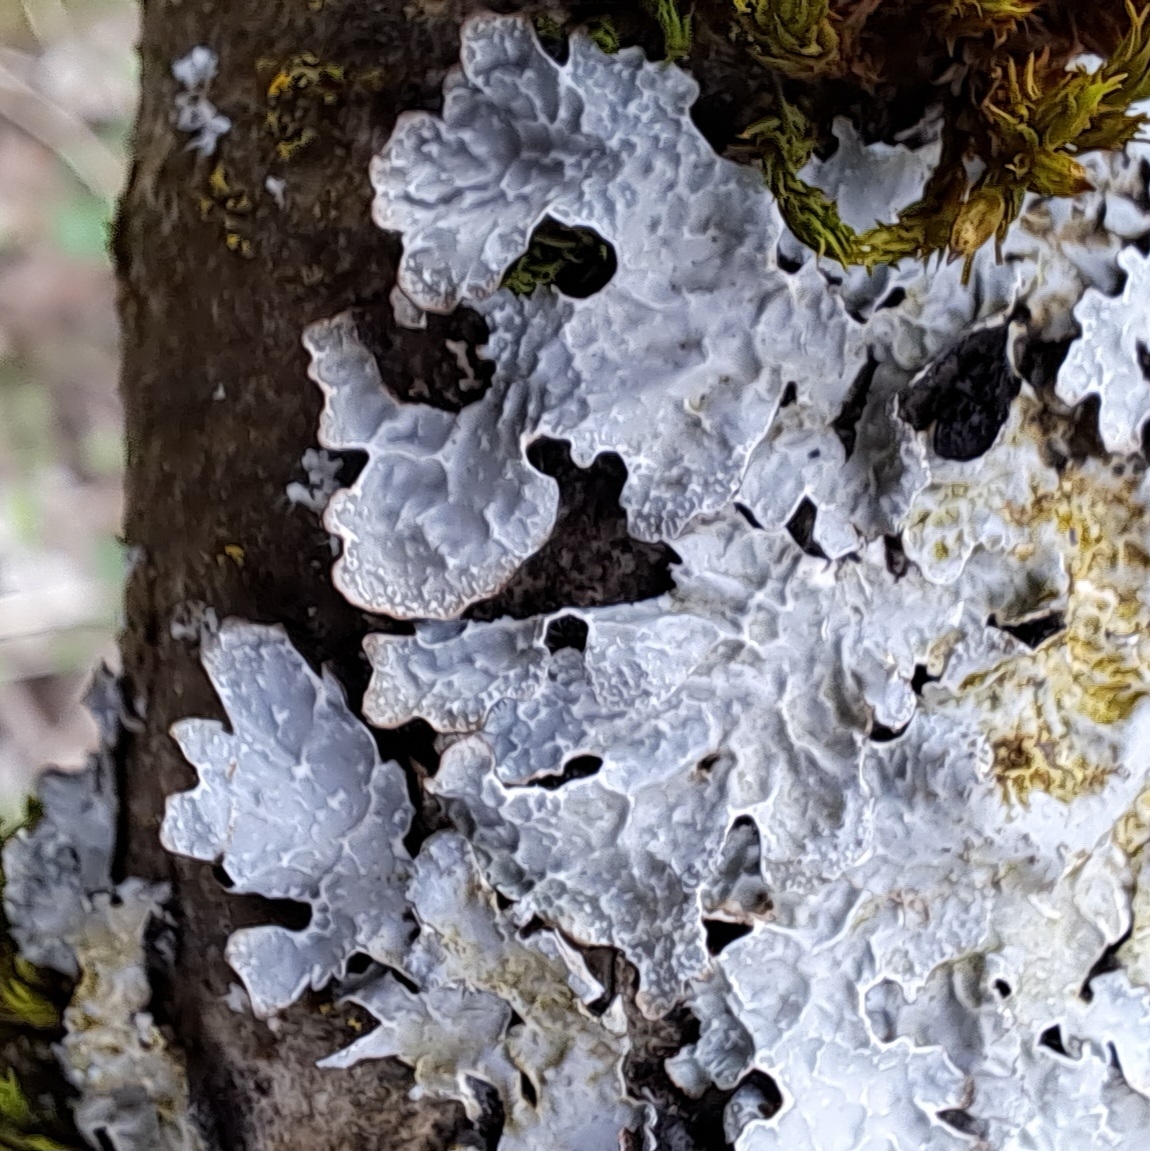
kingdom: Fungi
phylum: Ascomycota
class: Lecanoromycetes
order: Lecanorales
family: Parmeliaceae
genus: Parmelia
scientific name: Parmelia sulcata
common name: Netted shield lichen
